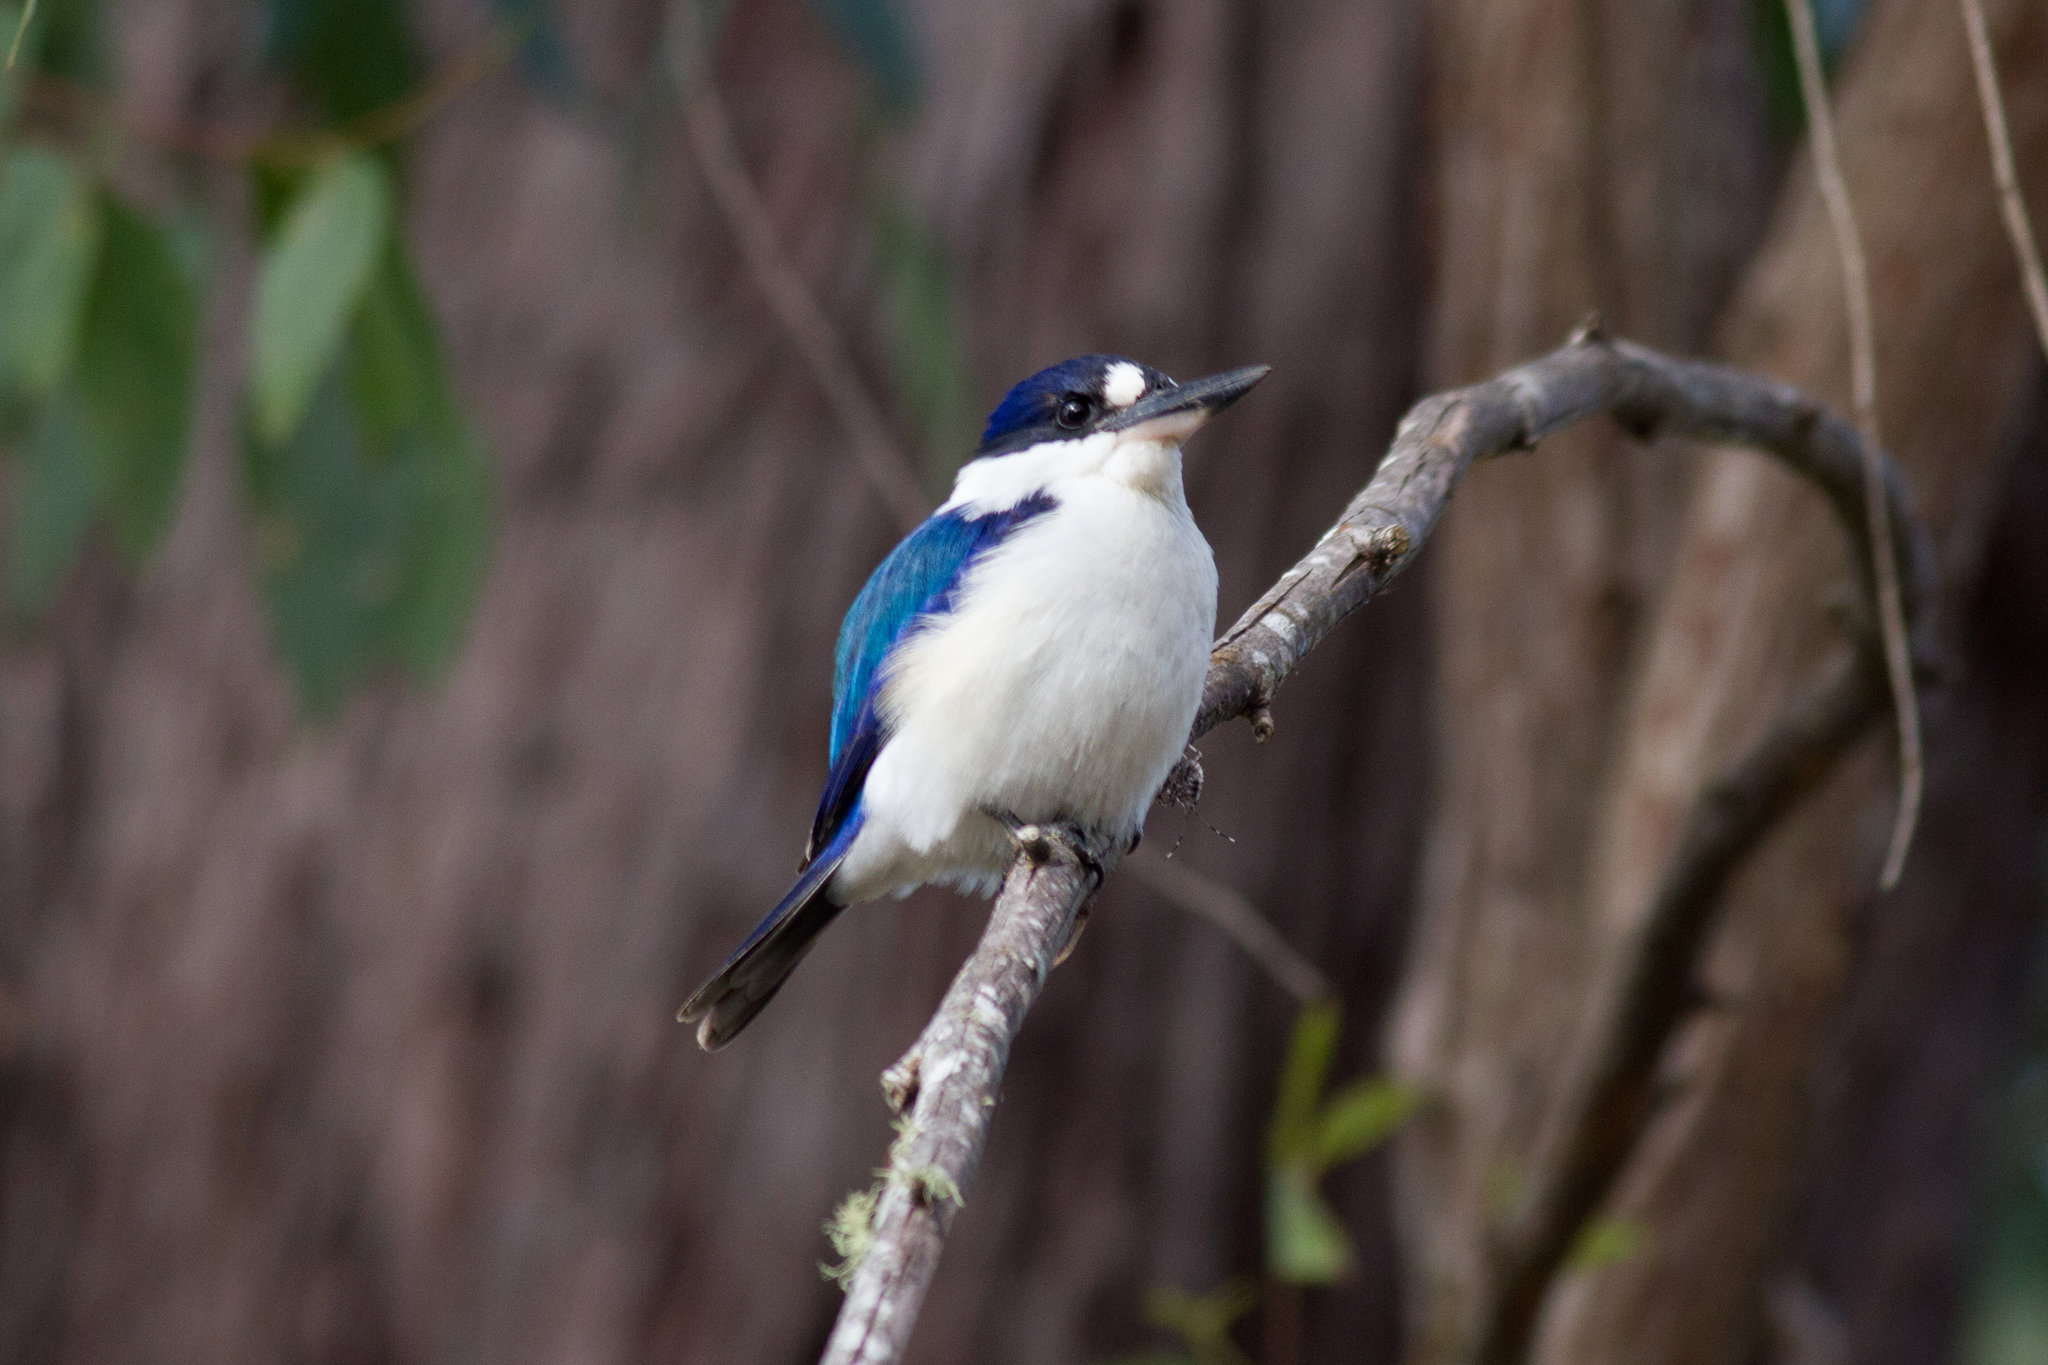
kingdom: Animalia
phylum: Chordata
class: Aves
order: Coraciiformes
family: Alcedinidae
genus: Todiramphus
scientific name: Todiramphus macleayii
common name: Forest kingfisher
